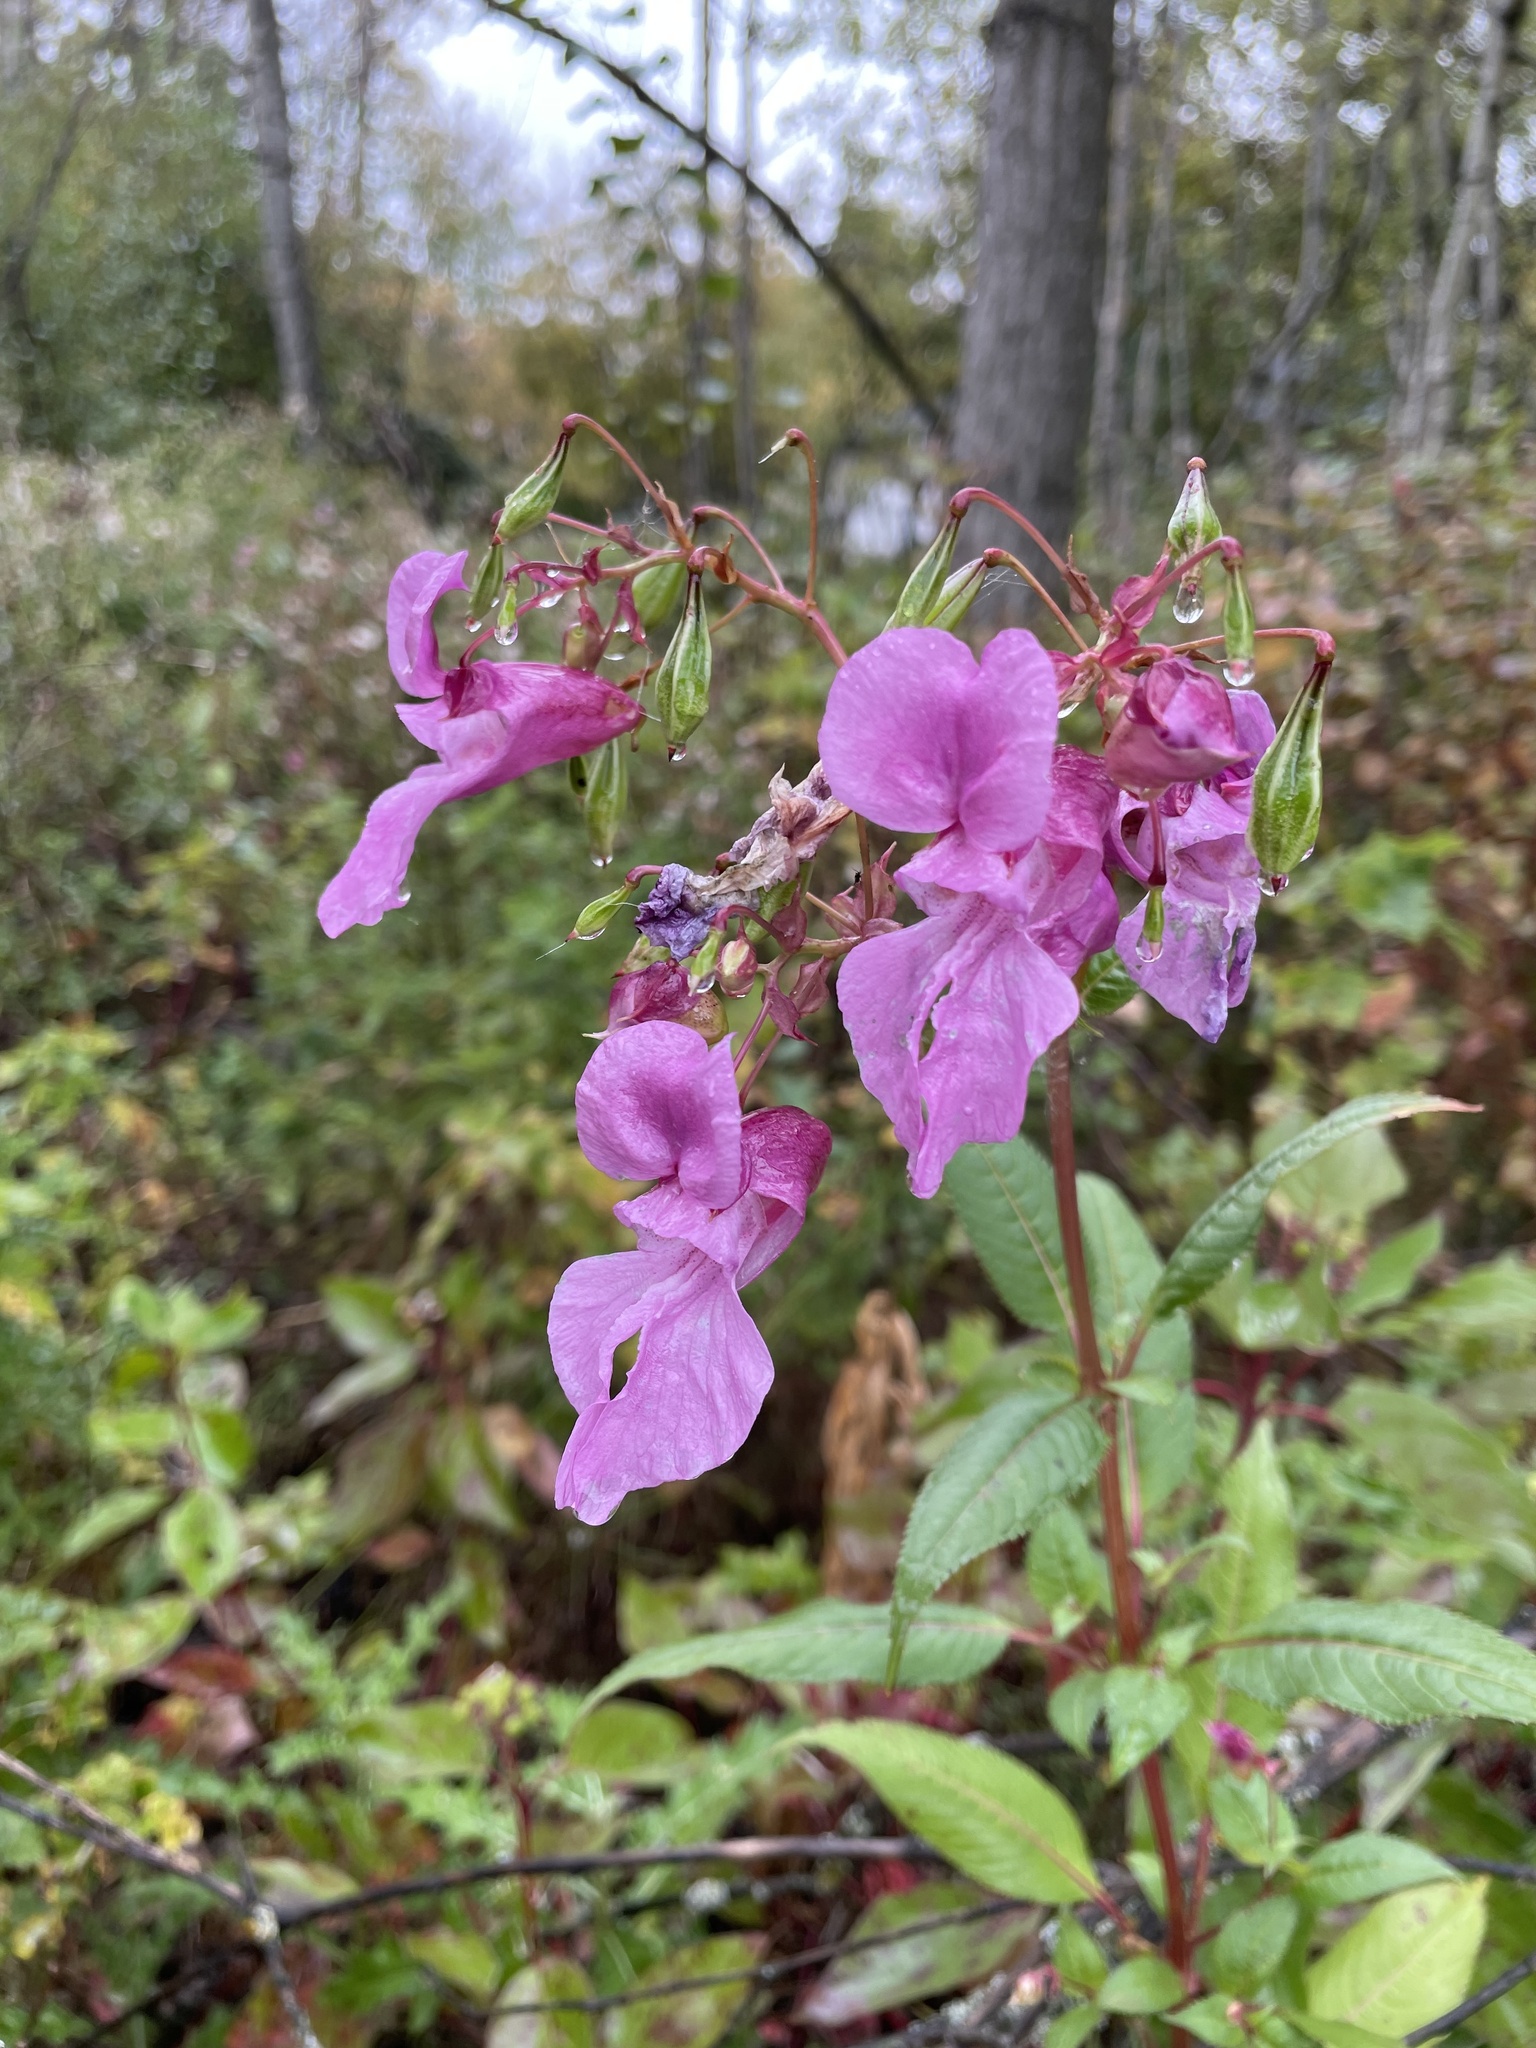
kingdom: Plantae
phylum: Tracheophyta
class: Magnoliopsida
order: Ericales
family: Balsaminaceae
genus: Impatiens
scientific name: Impatiens glandulifera
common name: Himalayan balsam
